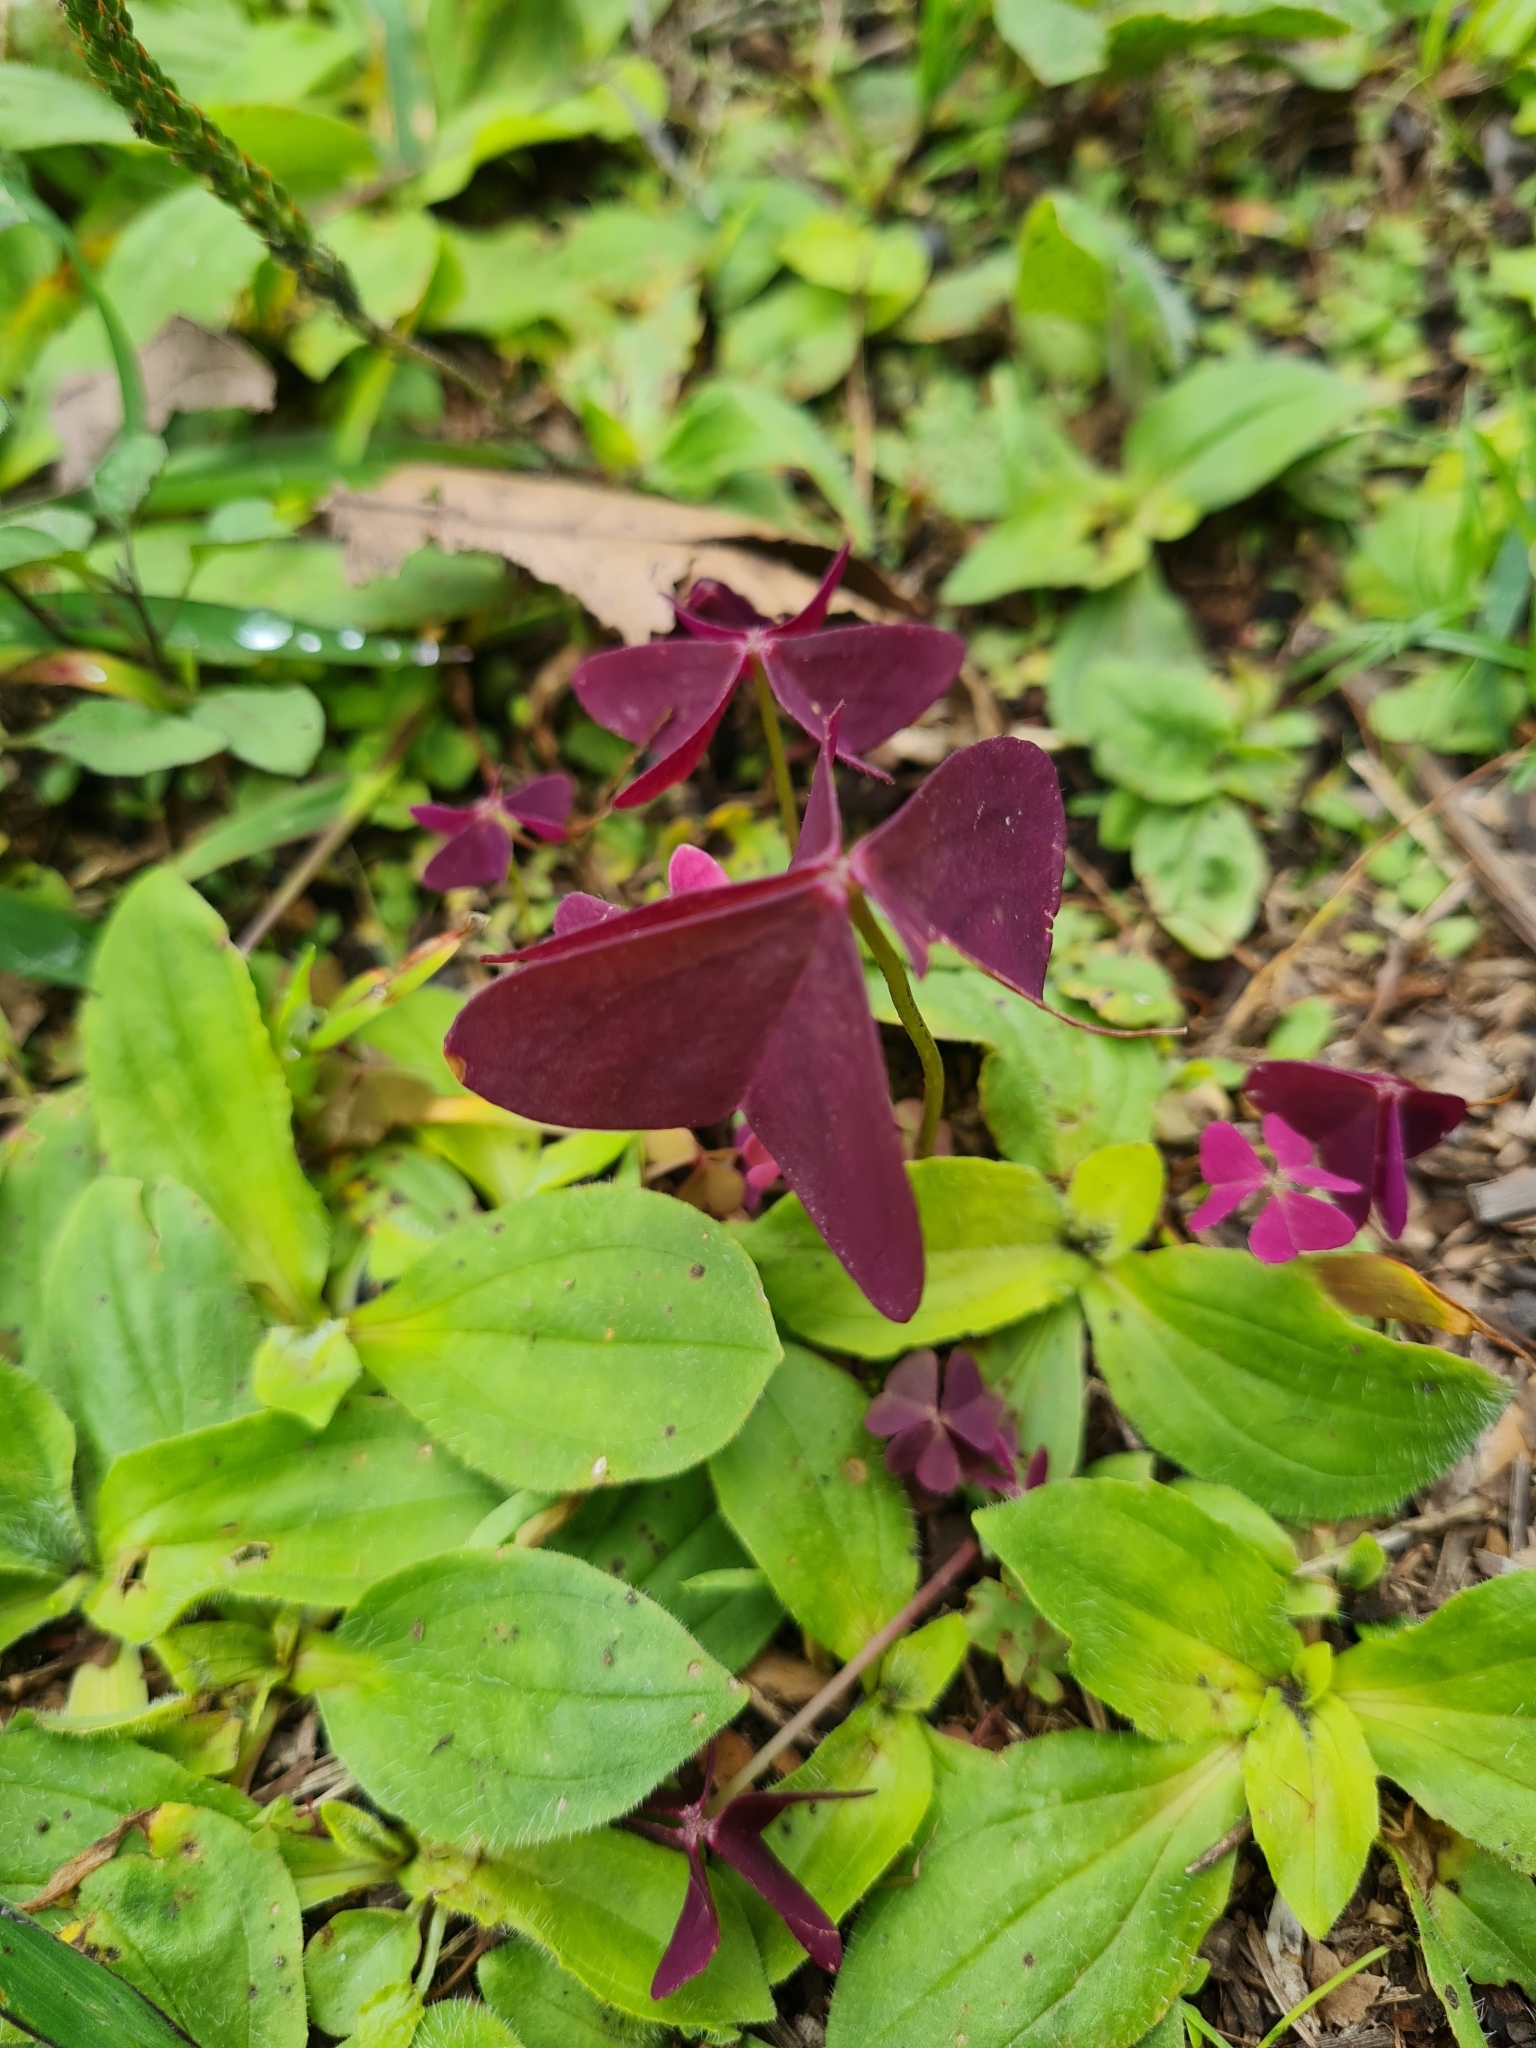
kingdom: Plantae
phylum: Tracheophyta
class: Magnoliopsida
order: Oxalidales
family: Oxalidaceae
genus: Oxalis
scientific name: Oxalis triangularis
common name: Wood sorrel
